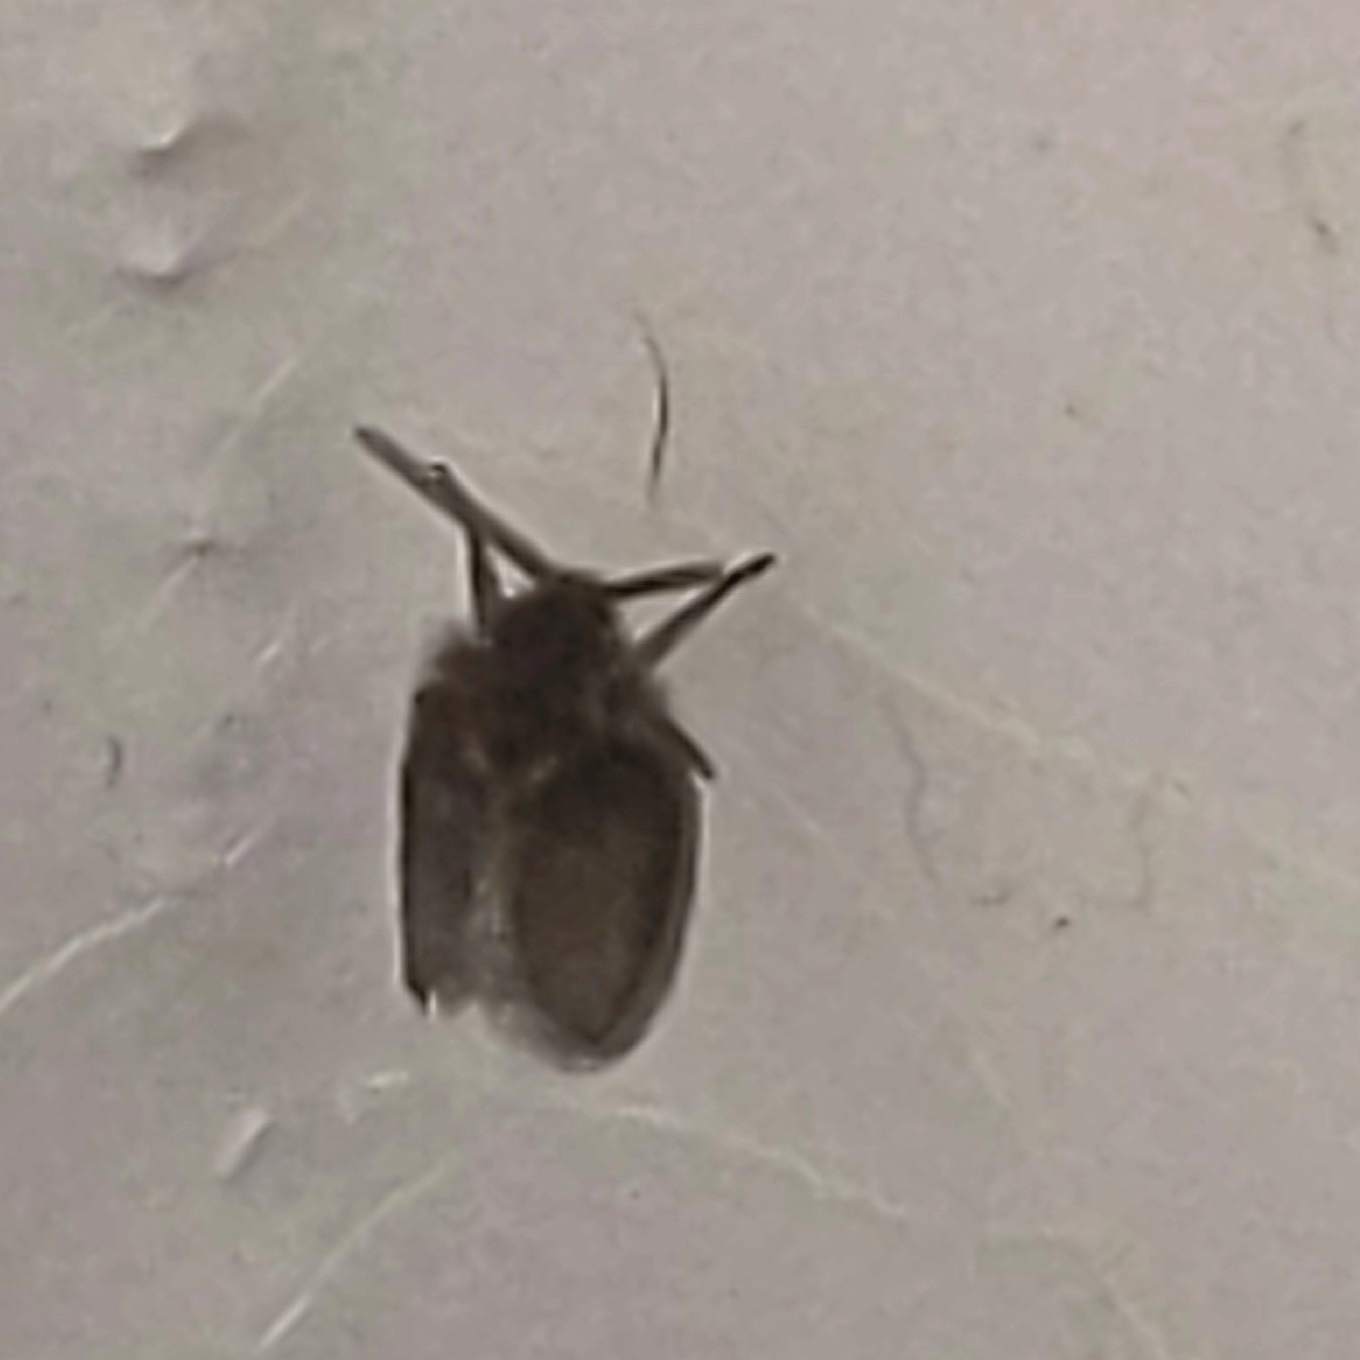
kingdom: Animalia
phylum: Arthropoda
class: Insecta
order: Diptera
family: Psychodidae
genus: Psychoda
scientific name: Psychoda
